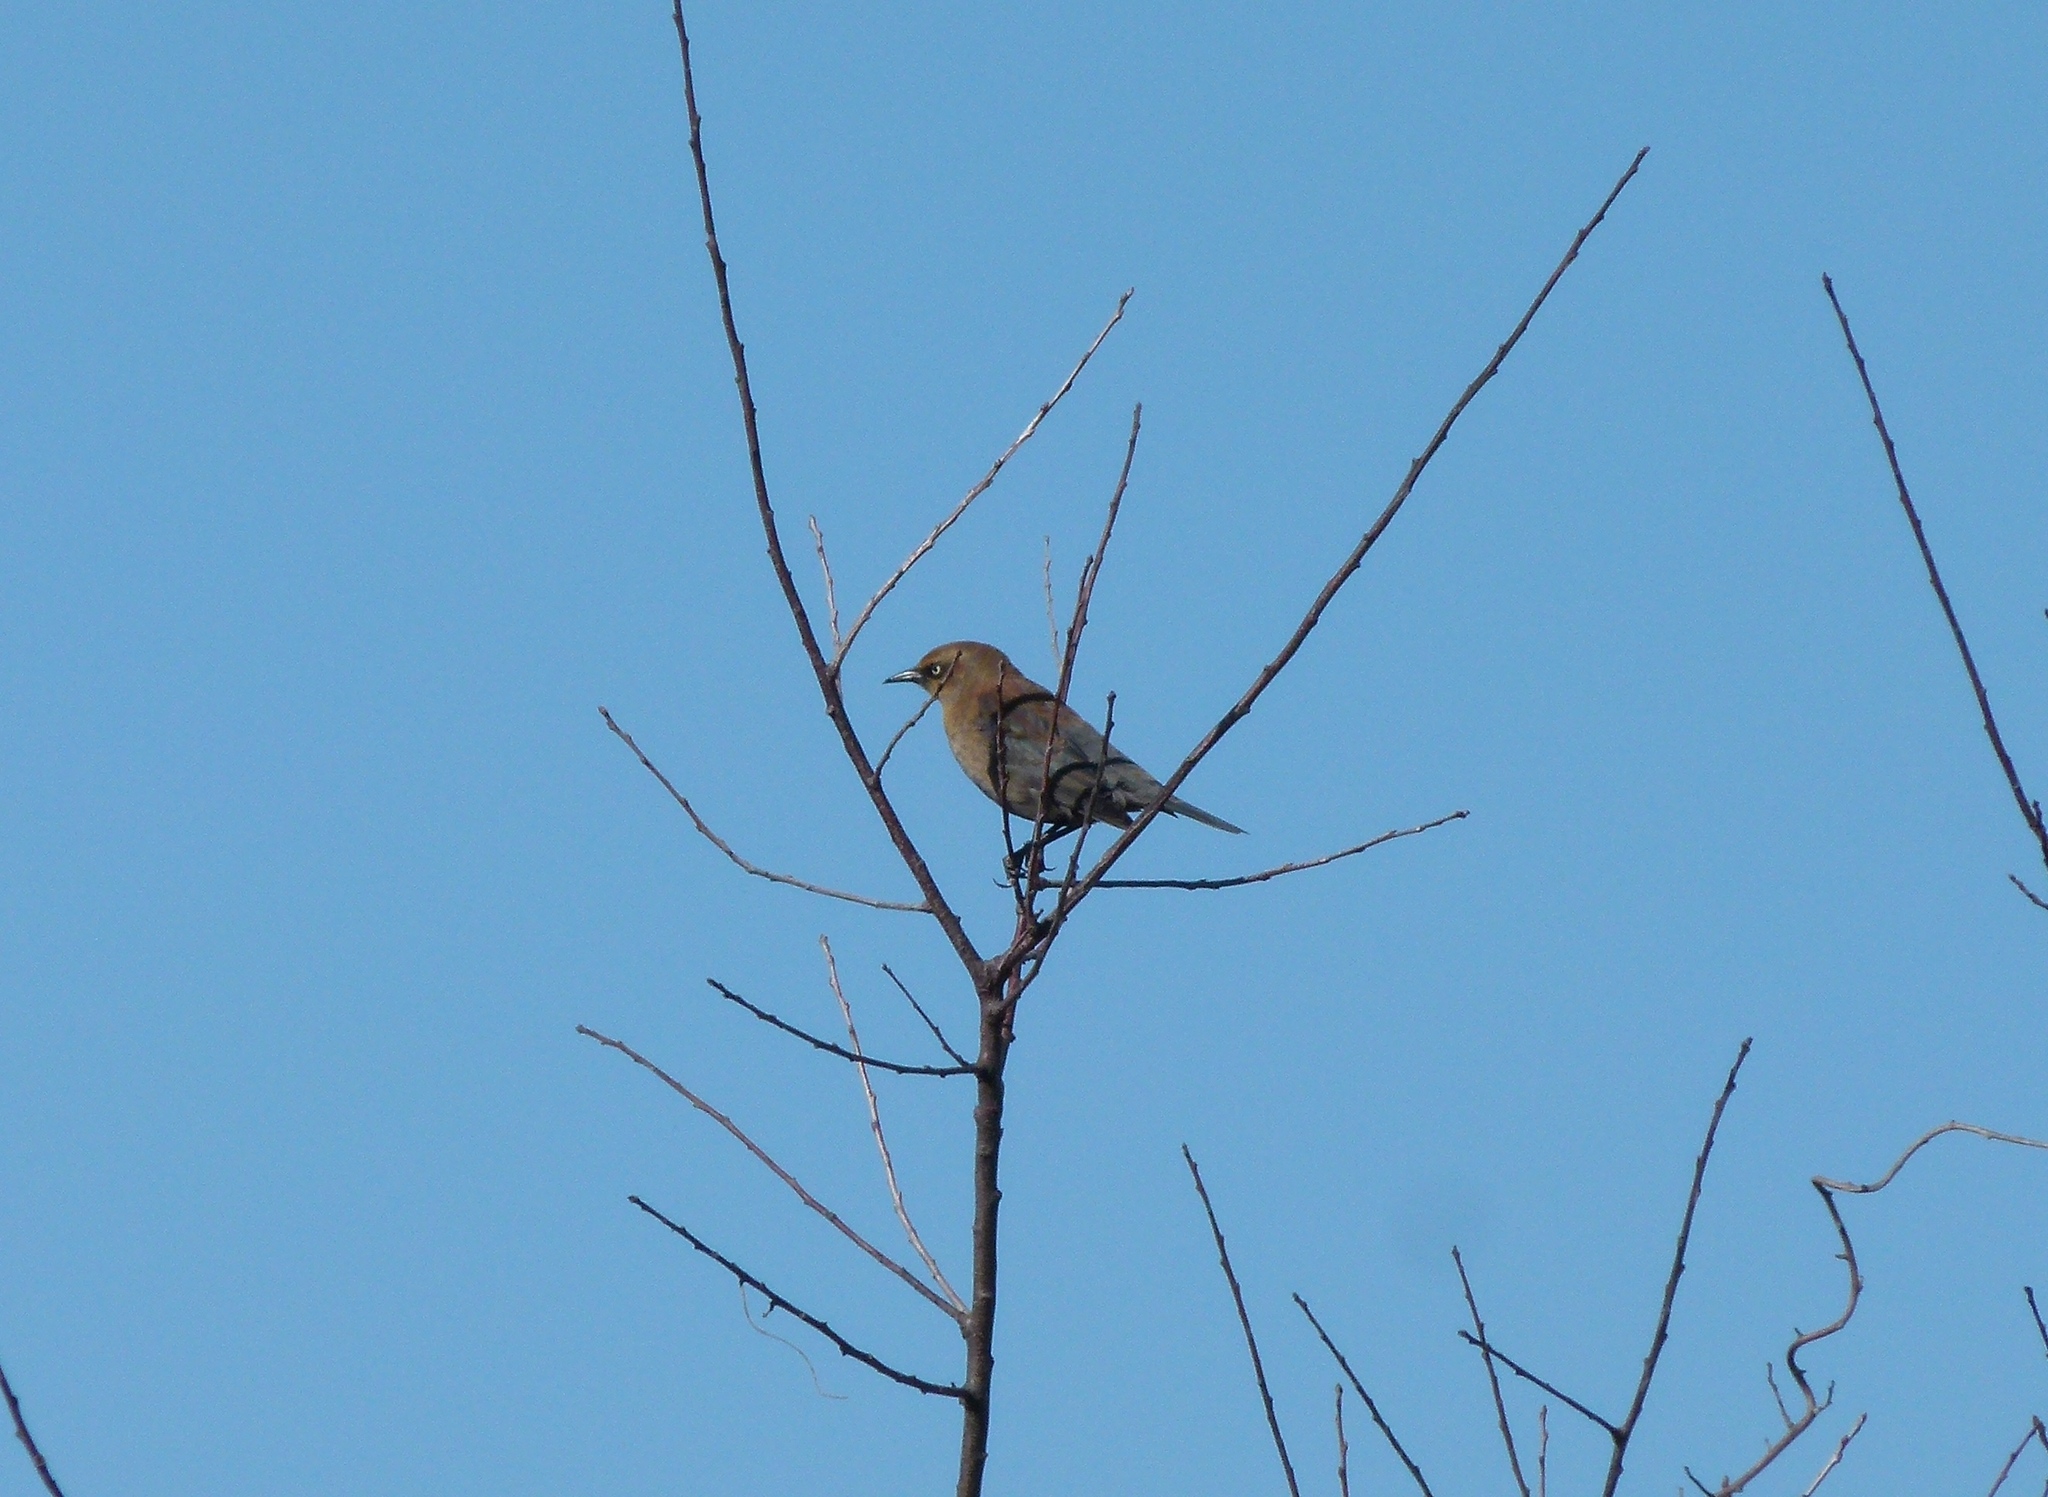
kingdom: Animalia
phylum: Chordata
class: Aves
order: Passeriformes
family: Icteridae
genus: Euphagus
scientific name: Euphagus carolinus
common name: Rusty blackbird
